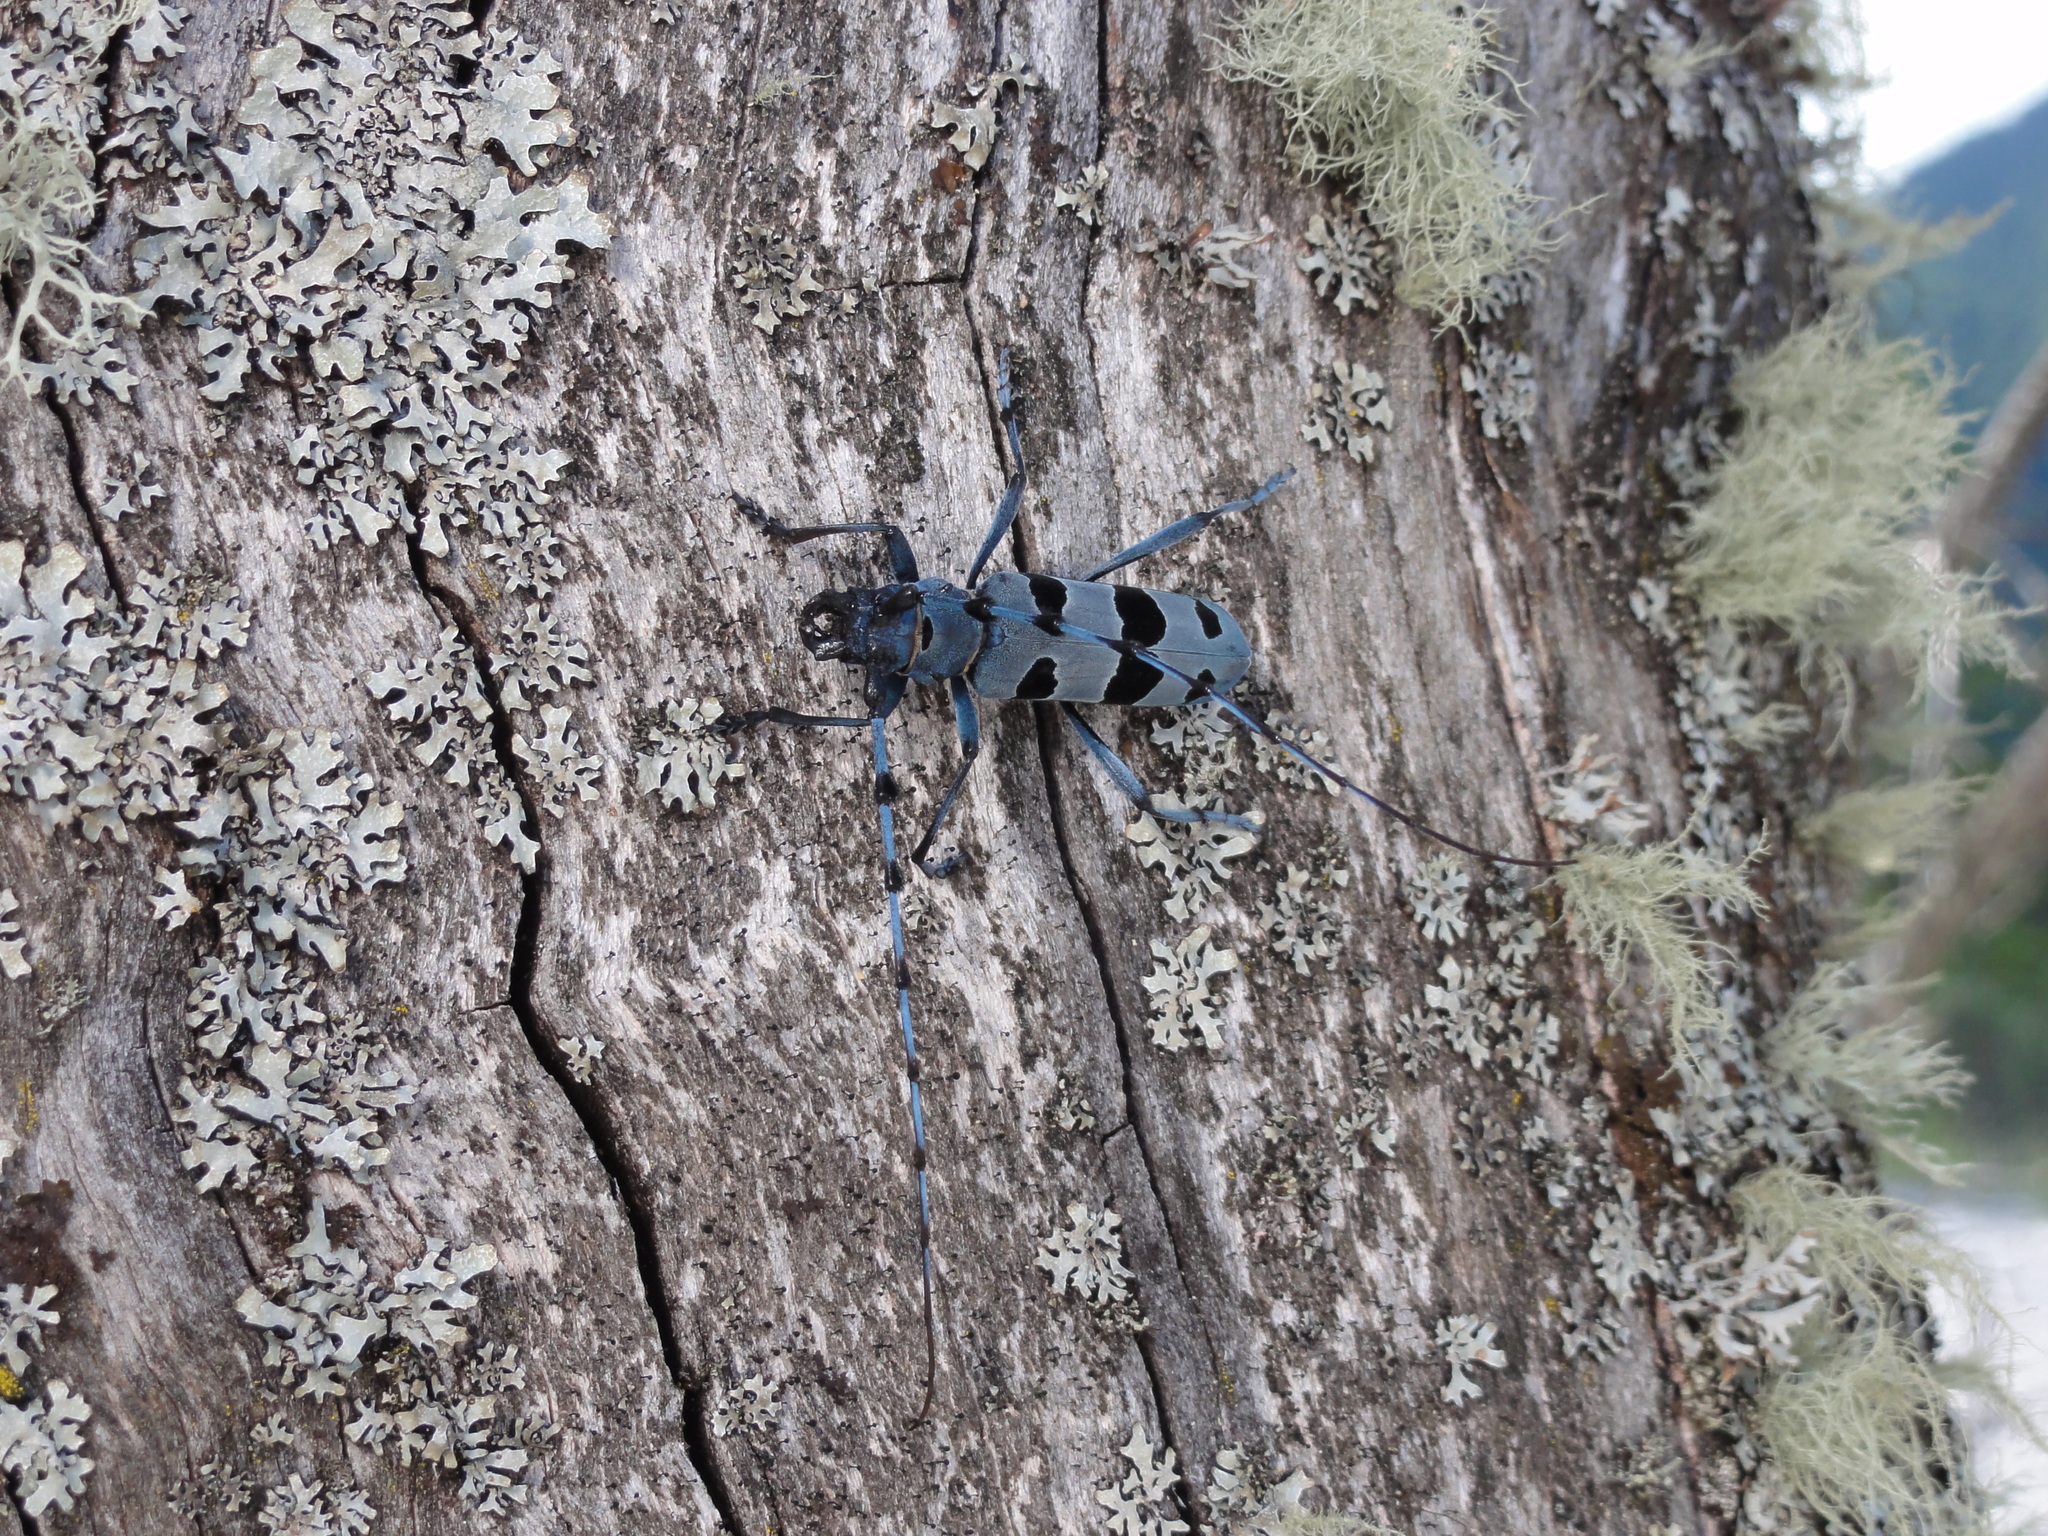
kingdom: Animalia
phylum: Arthropoda
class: Insecta
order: Coleoptera
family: Cerambycidae
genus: Rosalia
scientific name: Rosalia alpina
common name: Rosalia longicorn
